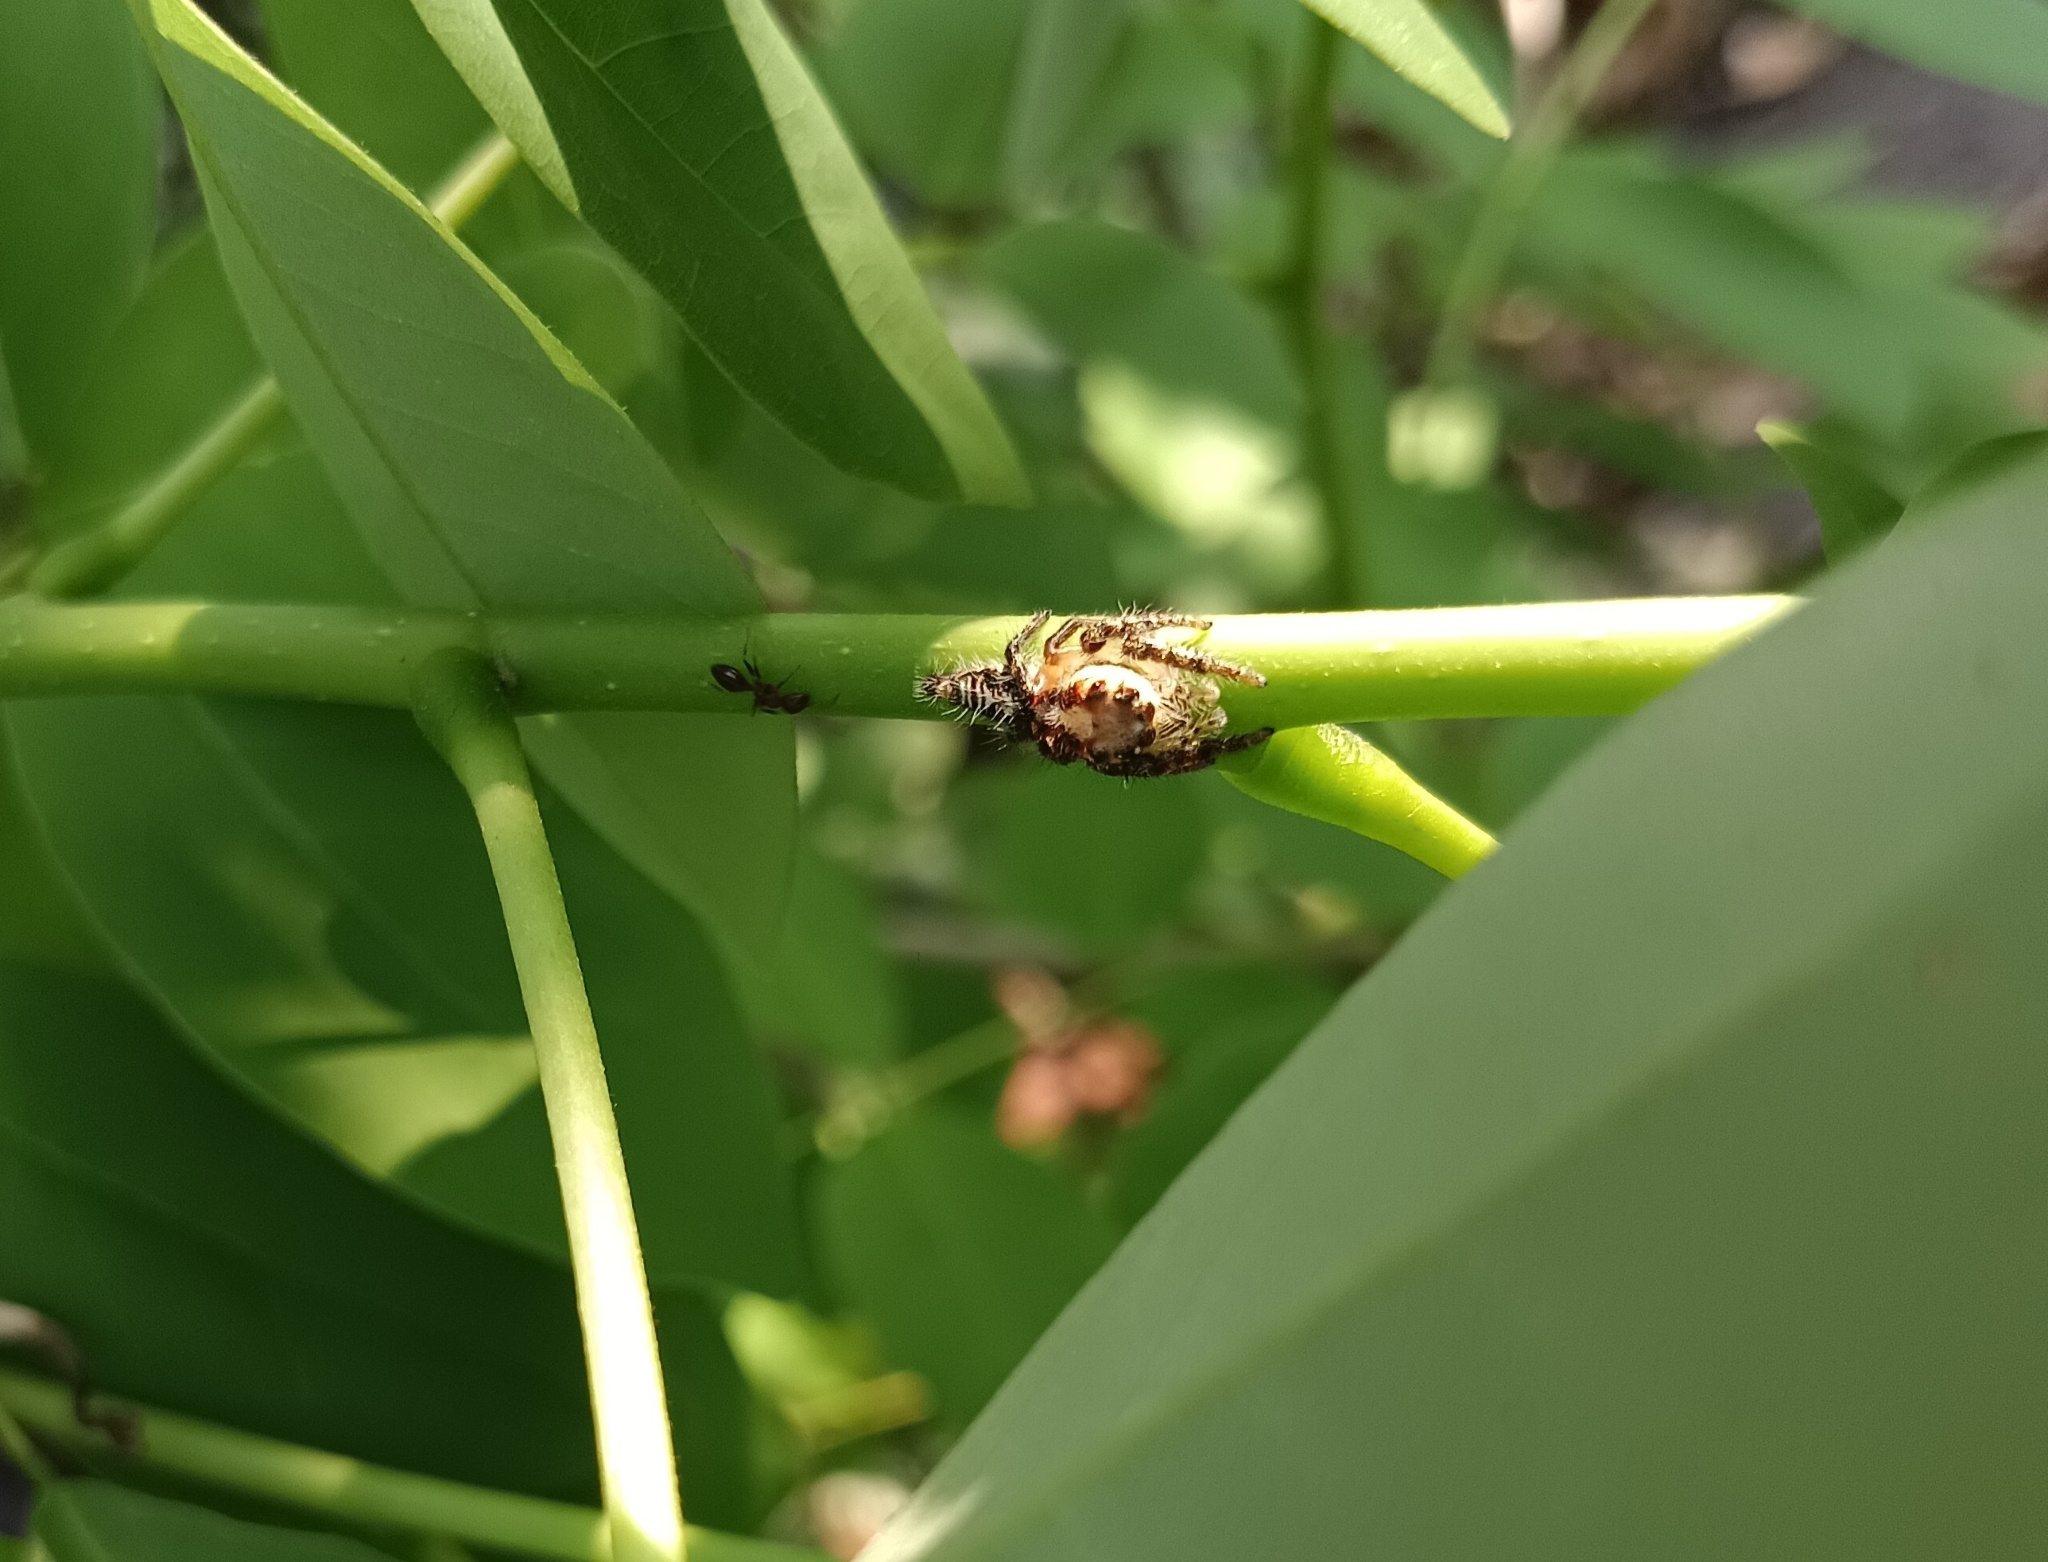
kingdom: Animalia
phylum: Arthropoda
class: Arachnida
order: Araneae
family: Salticidae
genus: Hyllus
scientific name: Hyllus semicupreus
